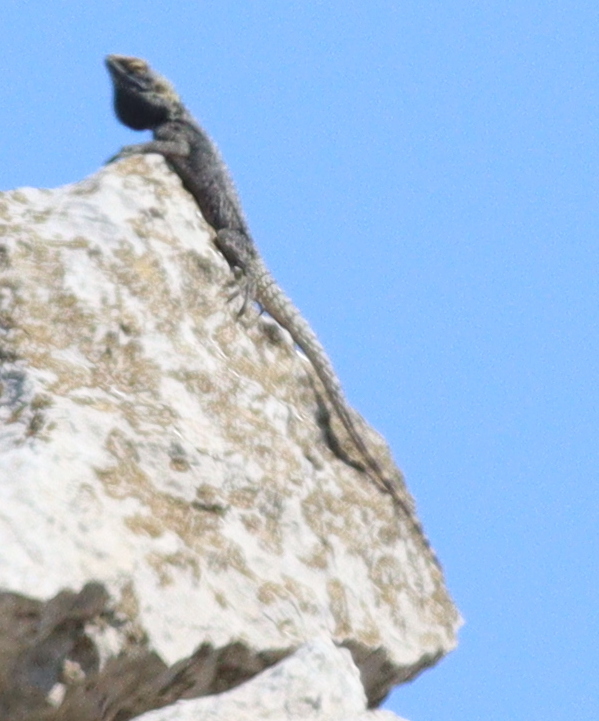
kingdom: Animalia
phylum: Chordata
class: Squamata
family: Agamidae
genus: Stellagama
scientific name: Stellagama stellio
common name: Starred agama
